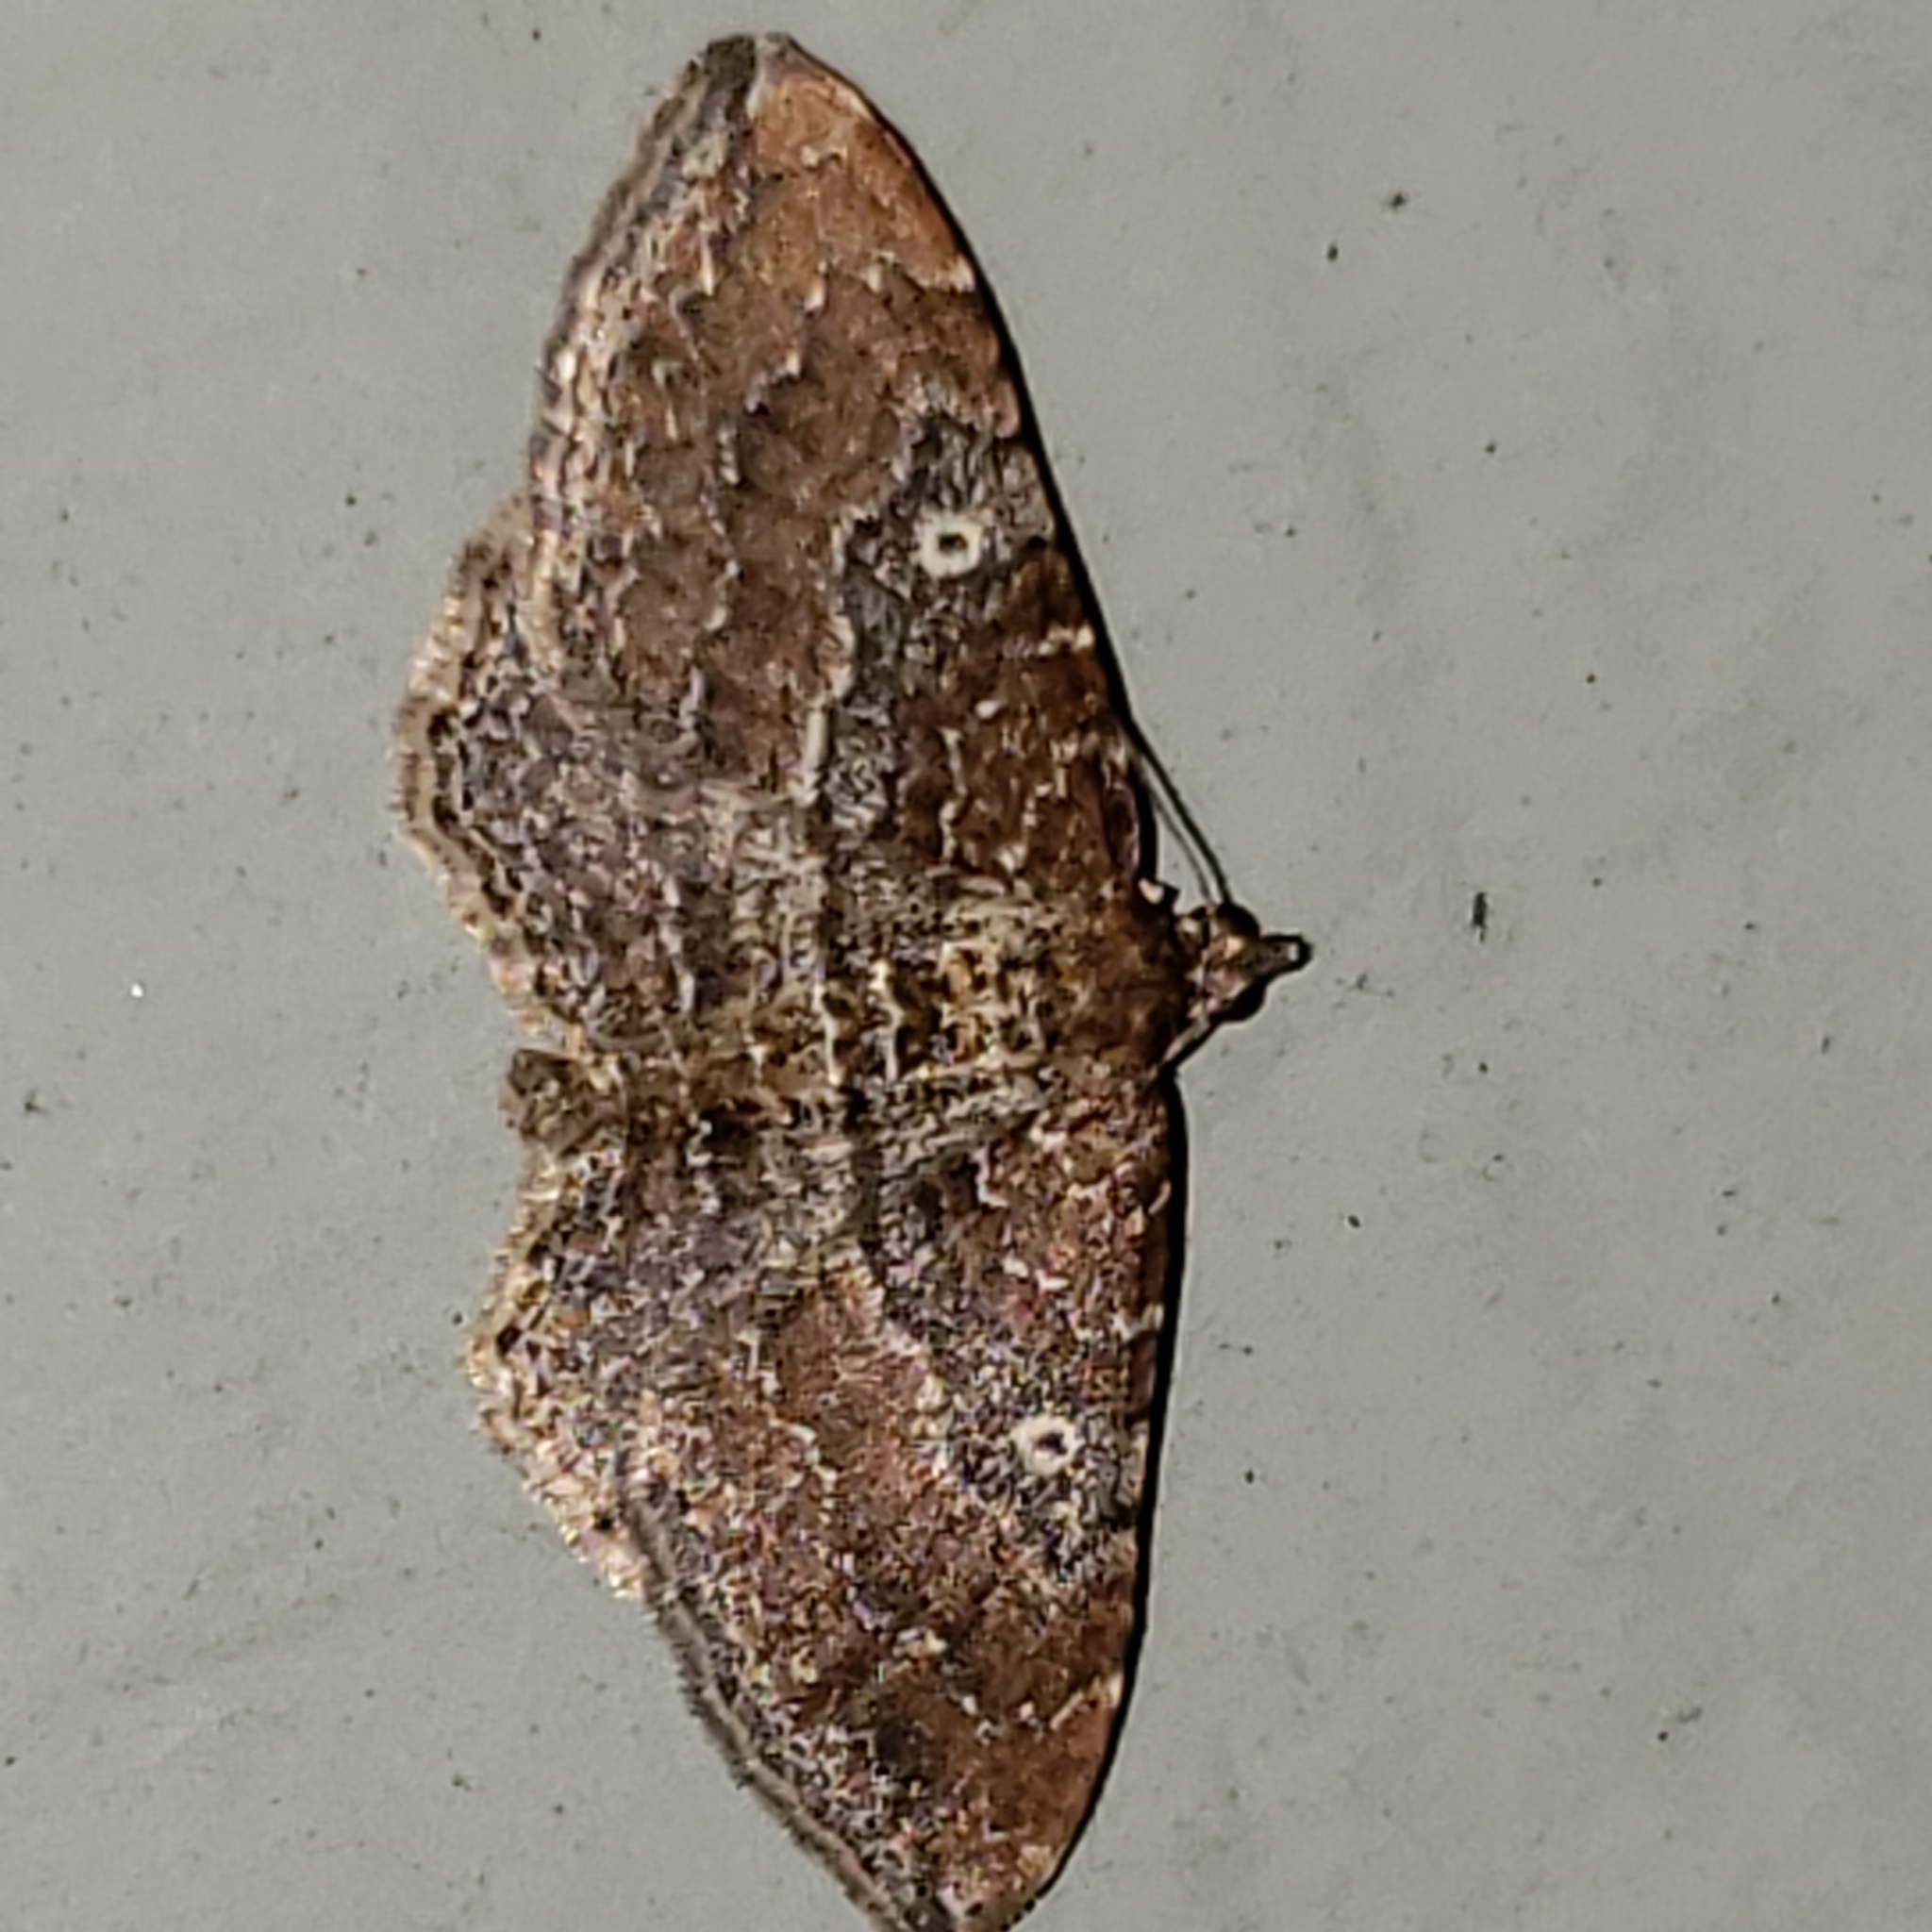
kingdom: Animalia
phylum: Arthropoda
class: Insecta
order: Lepidoptera
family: Geometridae
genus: Orthonama
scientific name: Orthonama obstipata
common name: The gem
